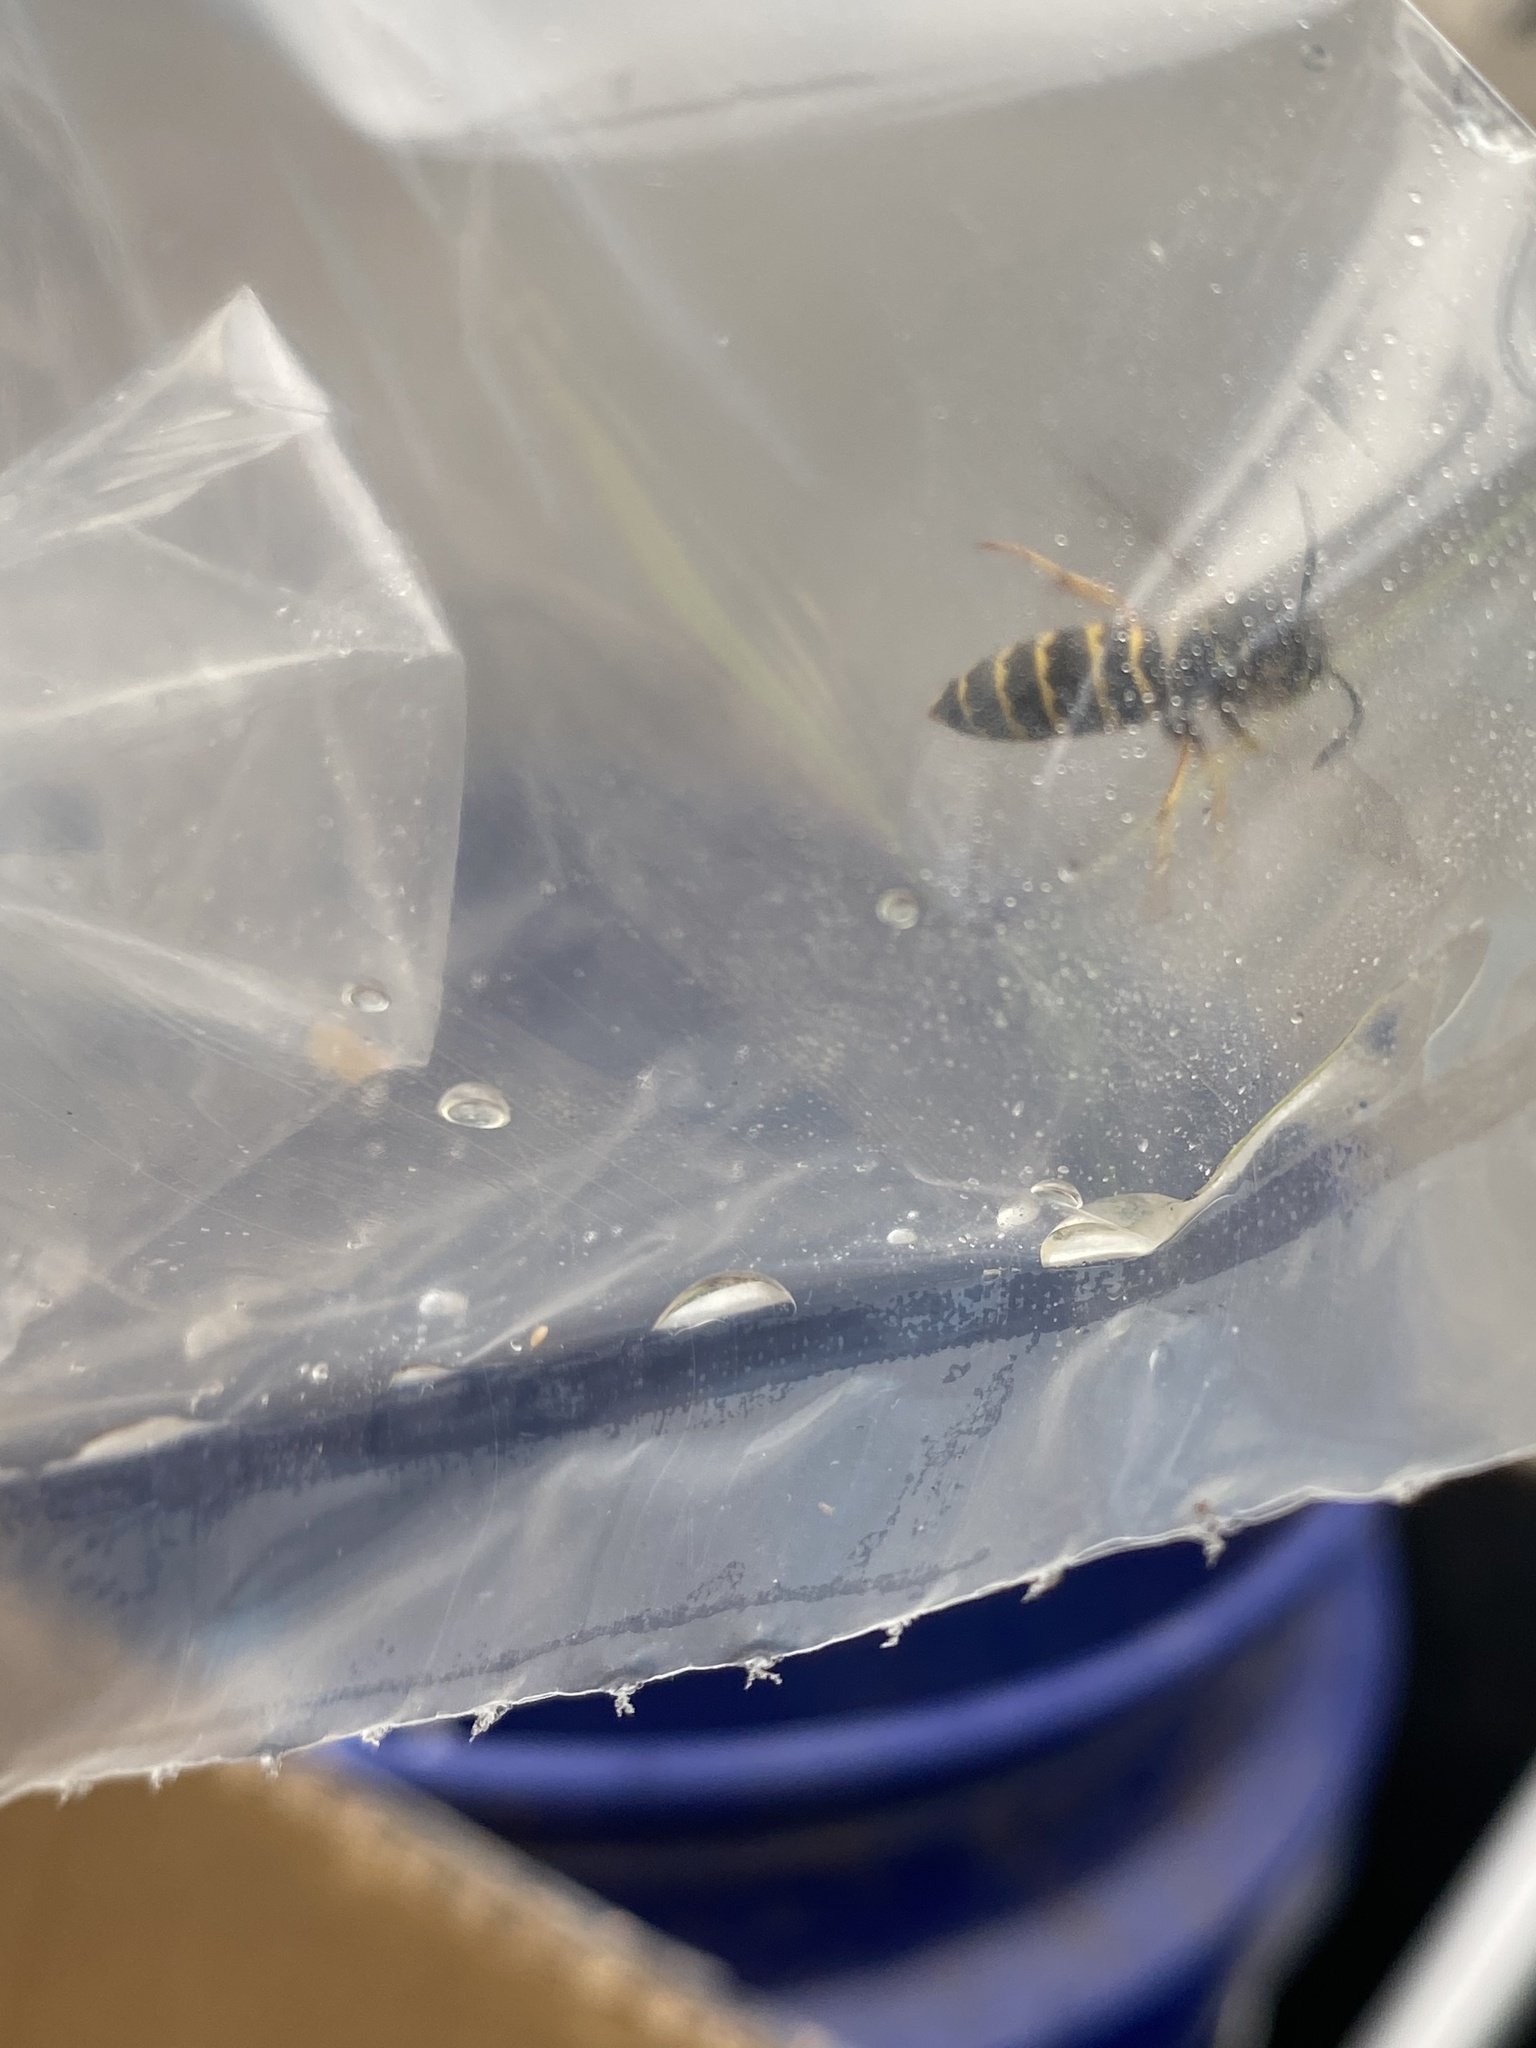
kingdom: Animalia
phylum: Arthropoda
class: Insecta
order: Hymenoptera
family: Vespidae
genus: Vespula
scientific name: Vespula alascensis
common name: Alaska yellowjacket
